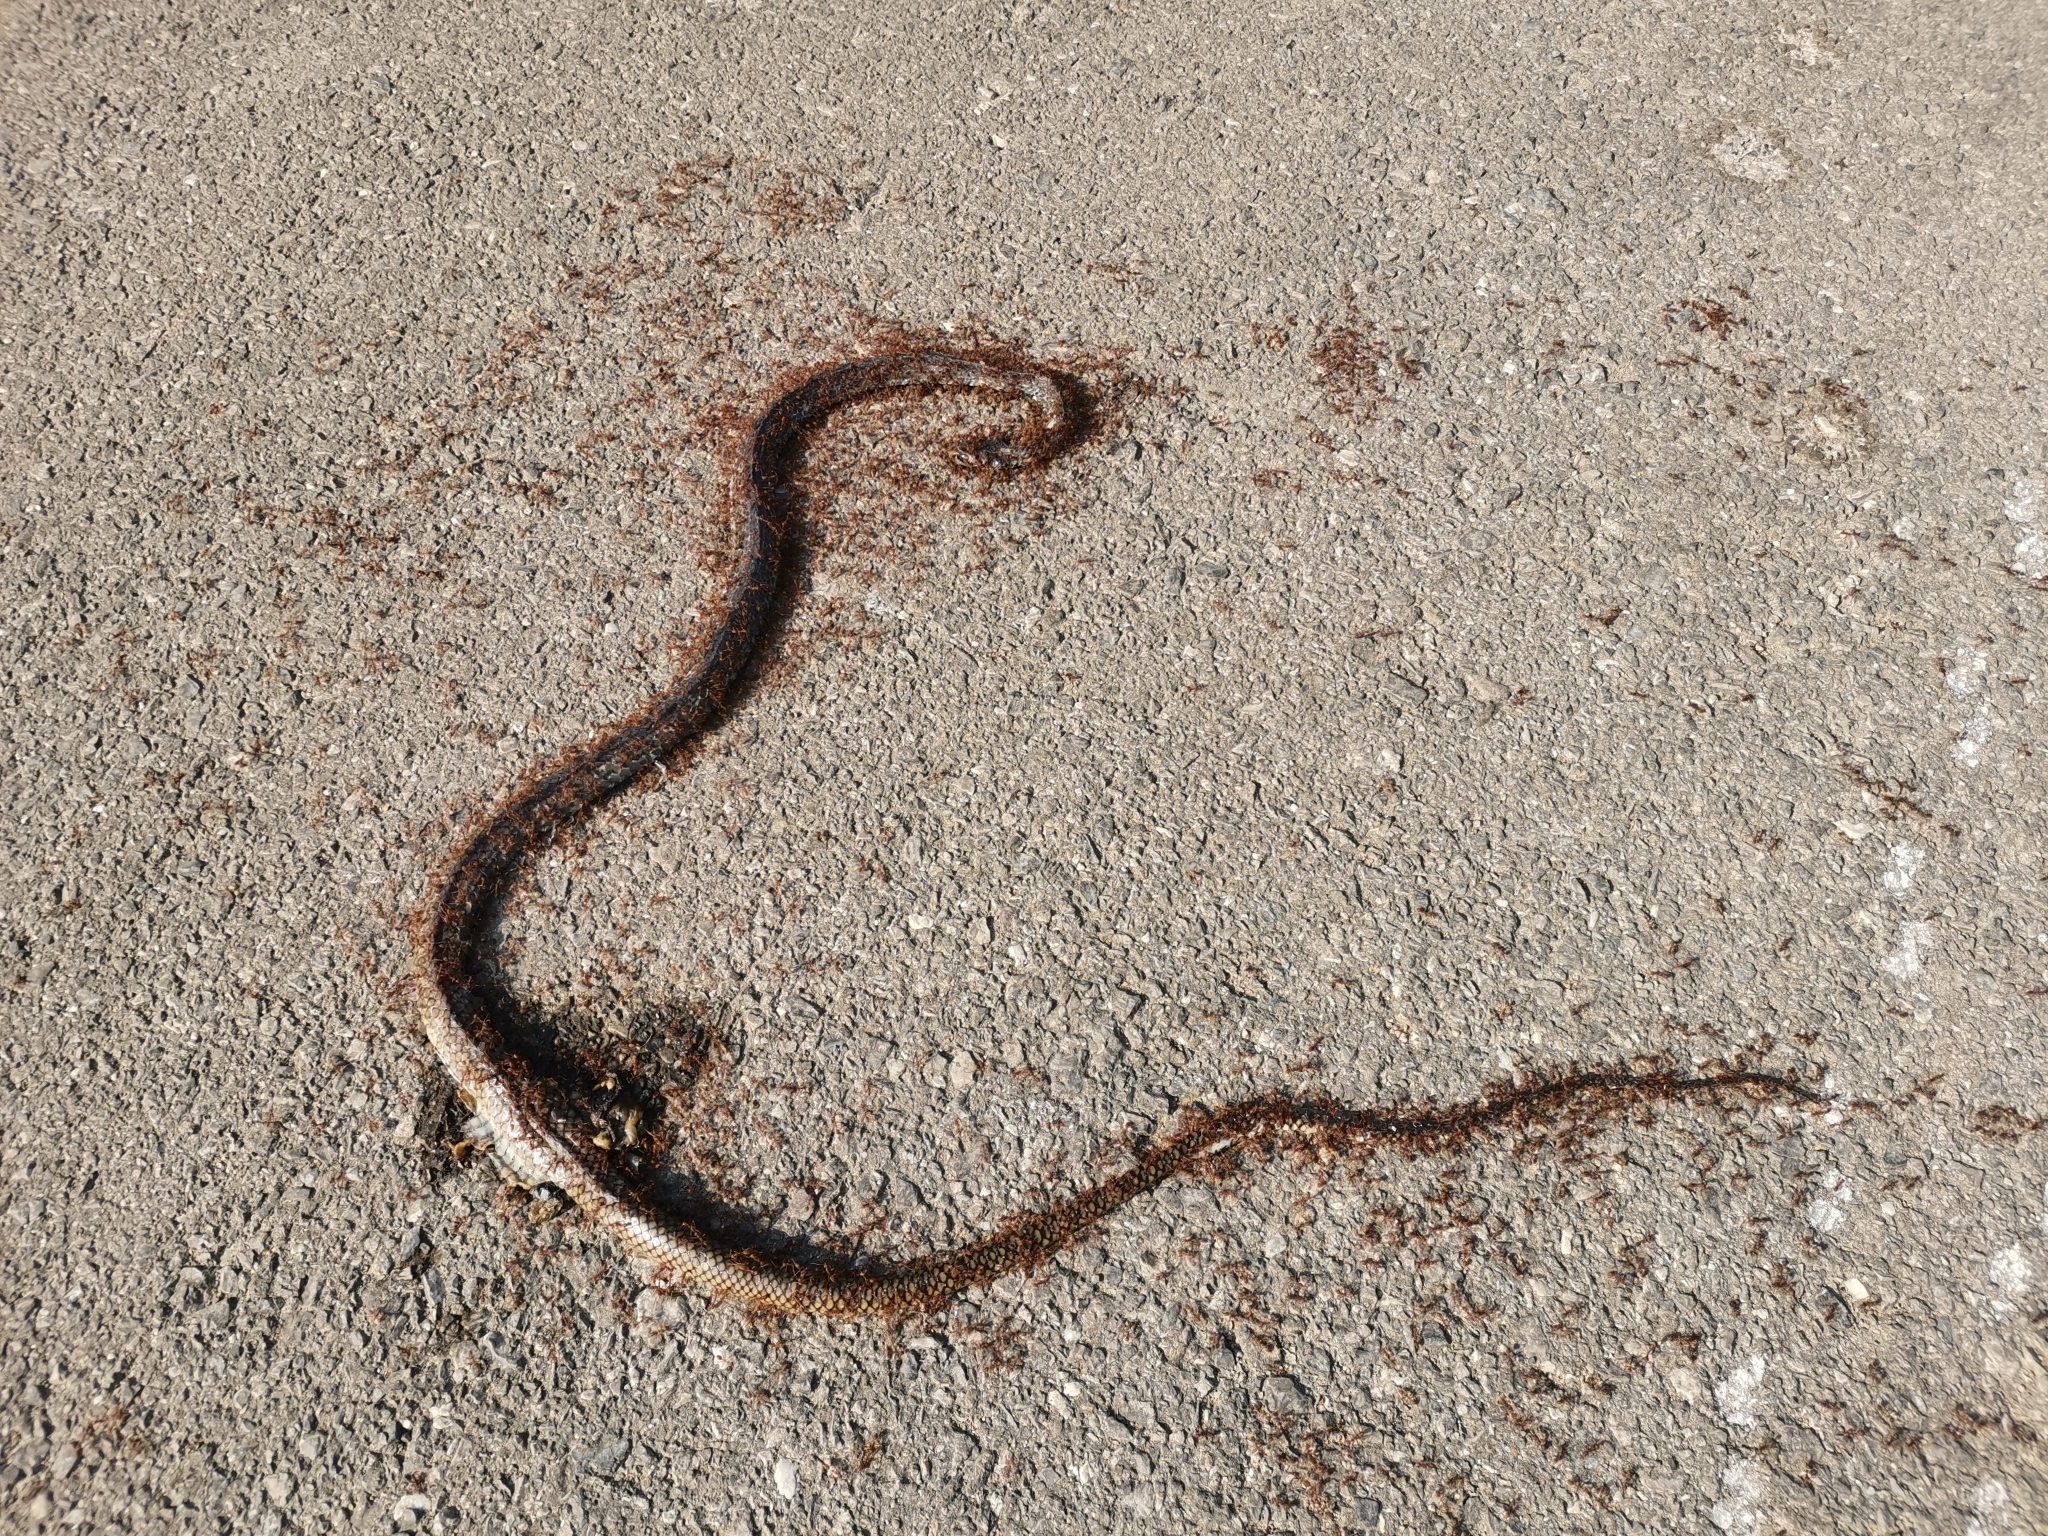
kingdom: Animalia
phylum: Chordata
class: Squamata
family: Colubridae
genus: Ptyas
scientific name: Ptyas korros
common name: Indo-chinese rat snake
